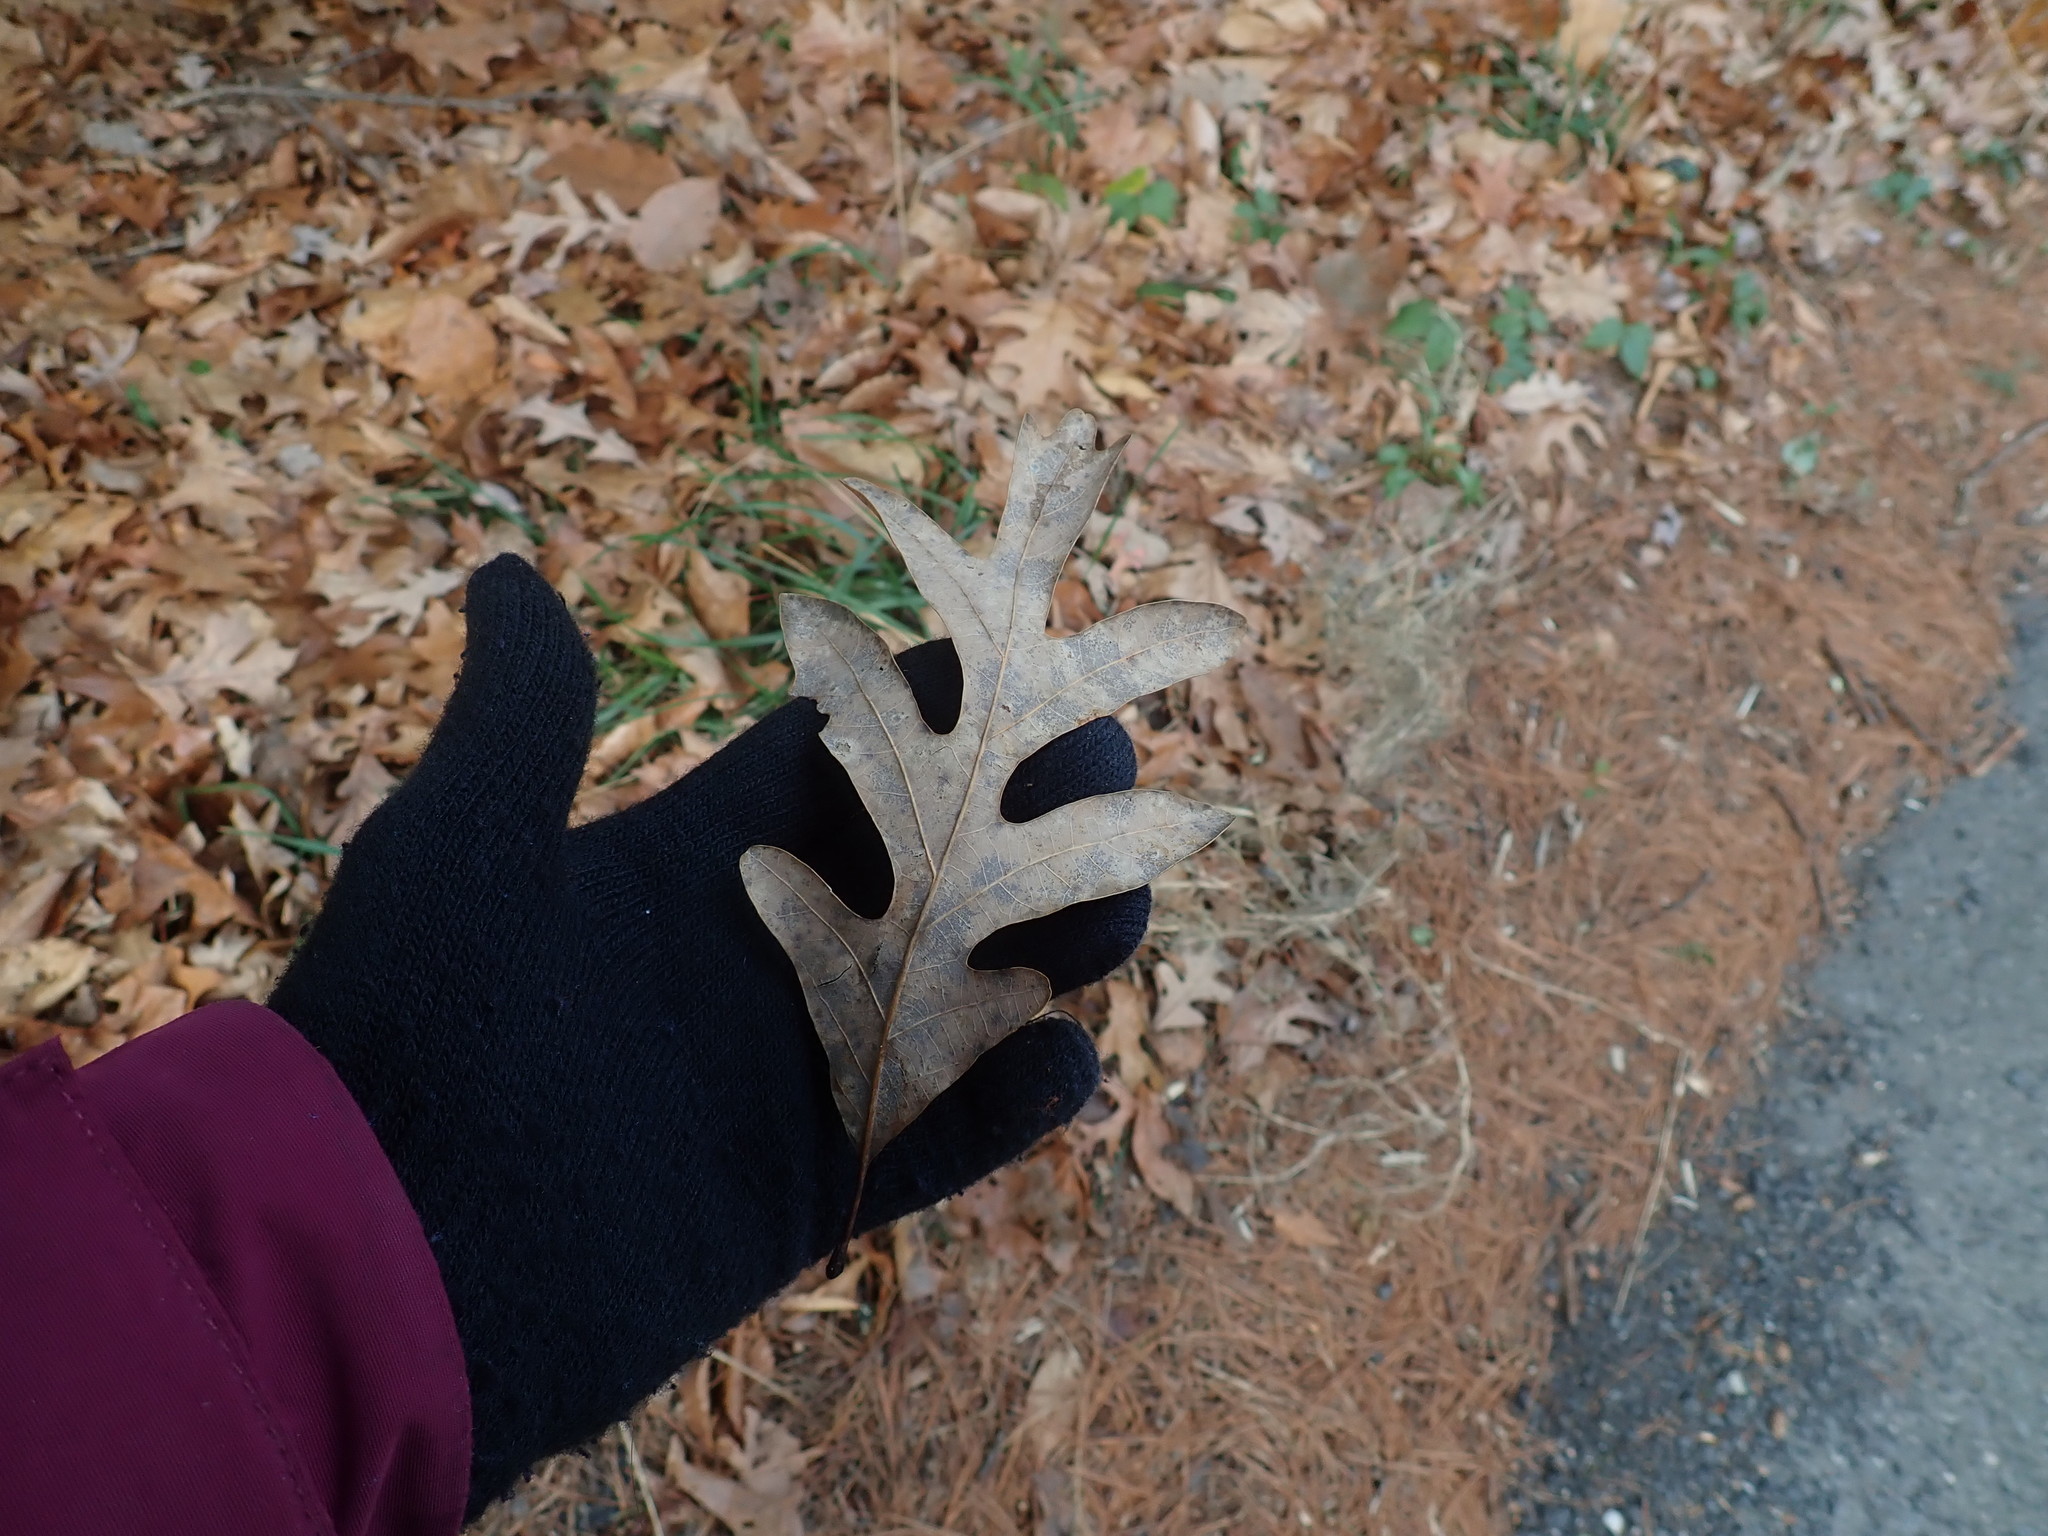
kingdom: Plantae
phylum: Tracheophyta
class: Magnoliopsida
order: Fagales
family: Fagaceae
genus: Quercus
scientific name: Quercus alba
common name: White oak
